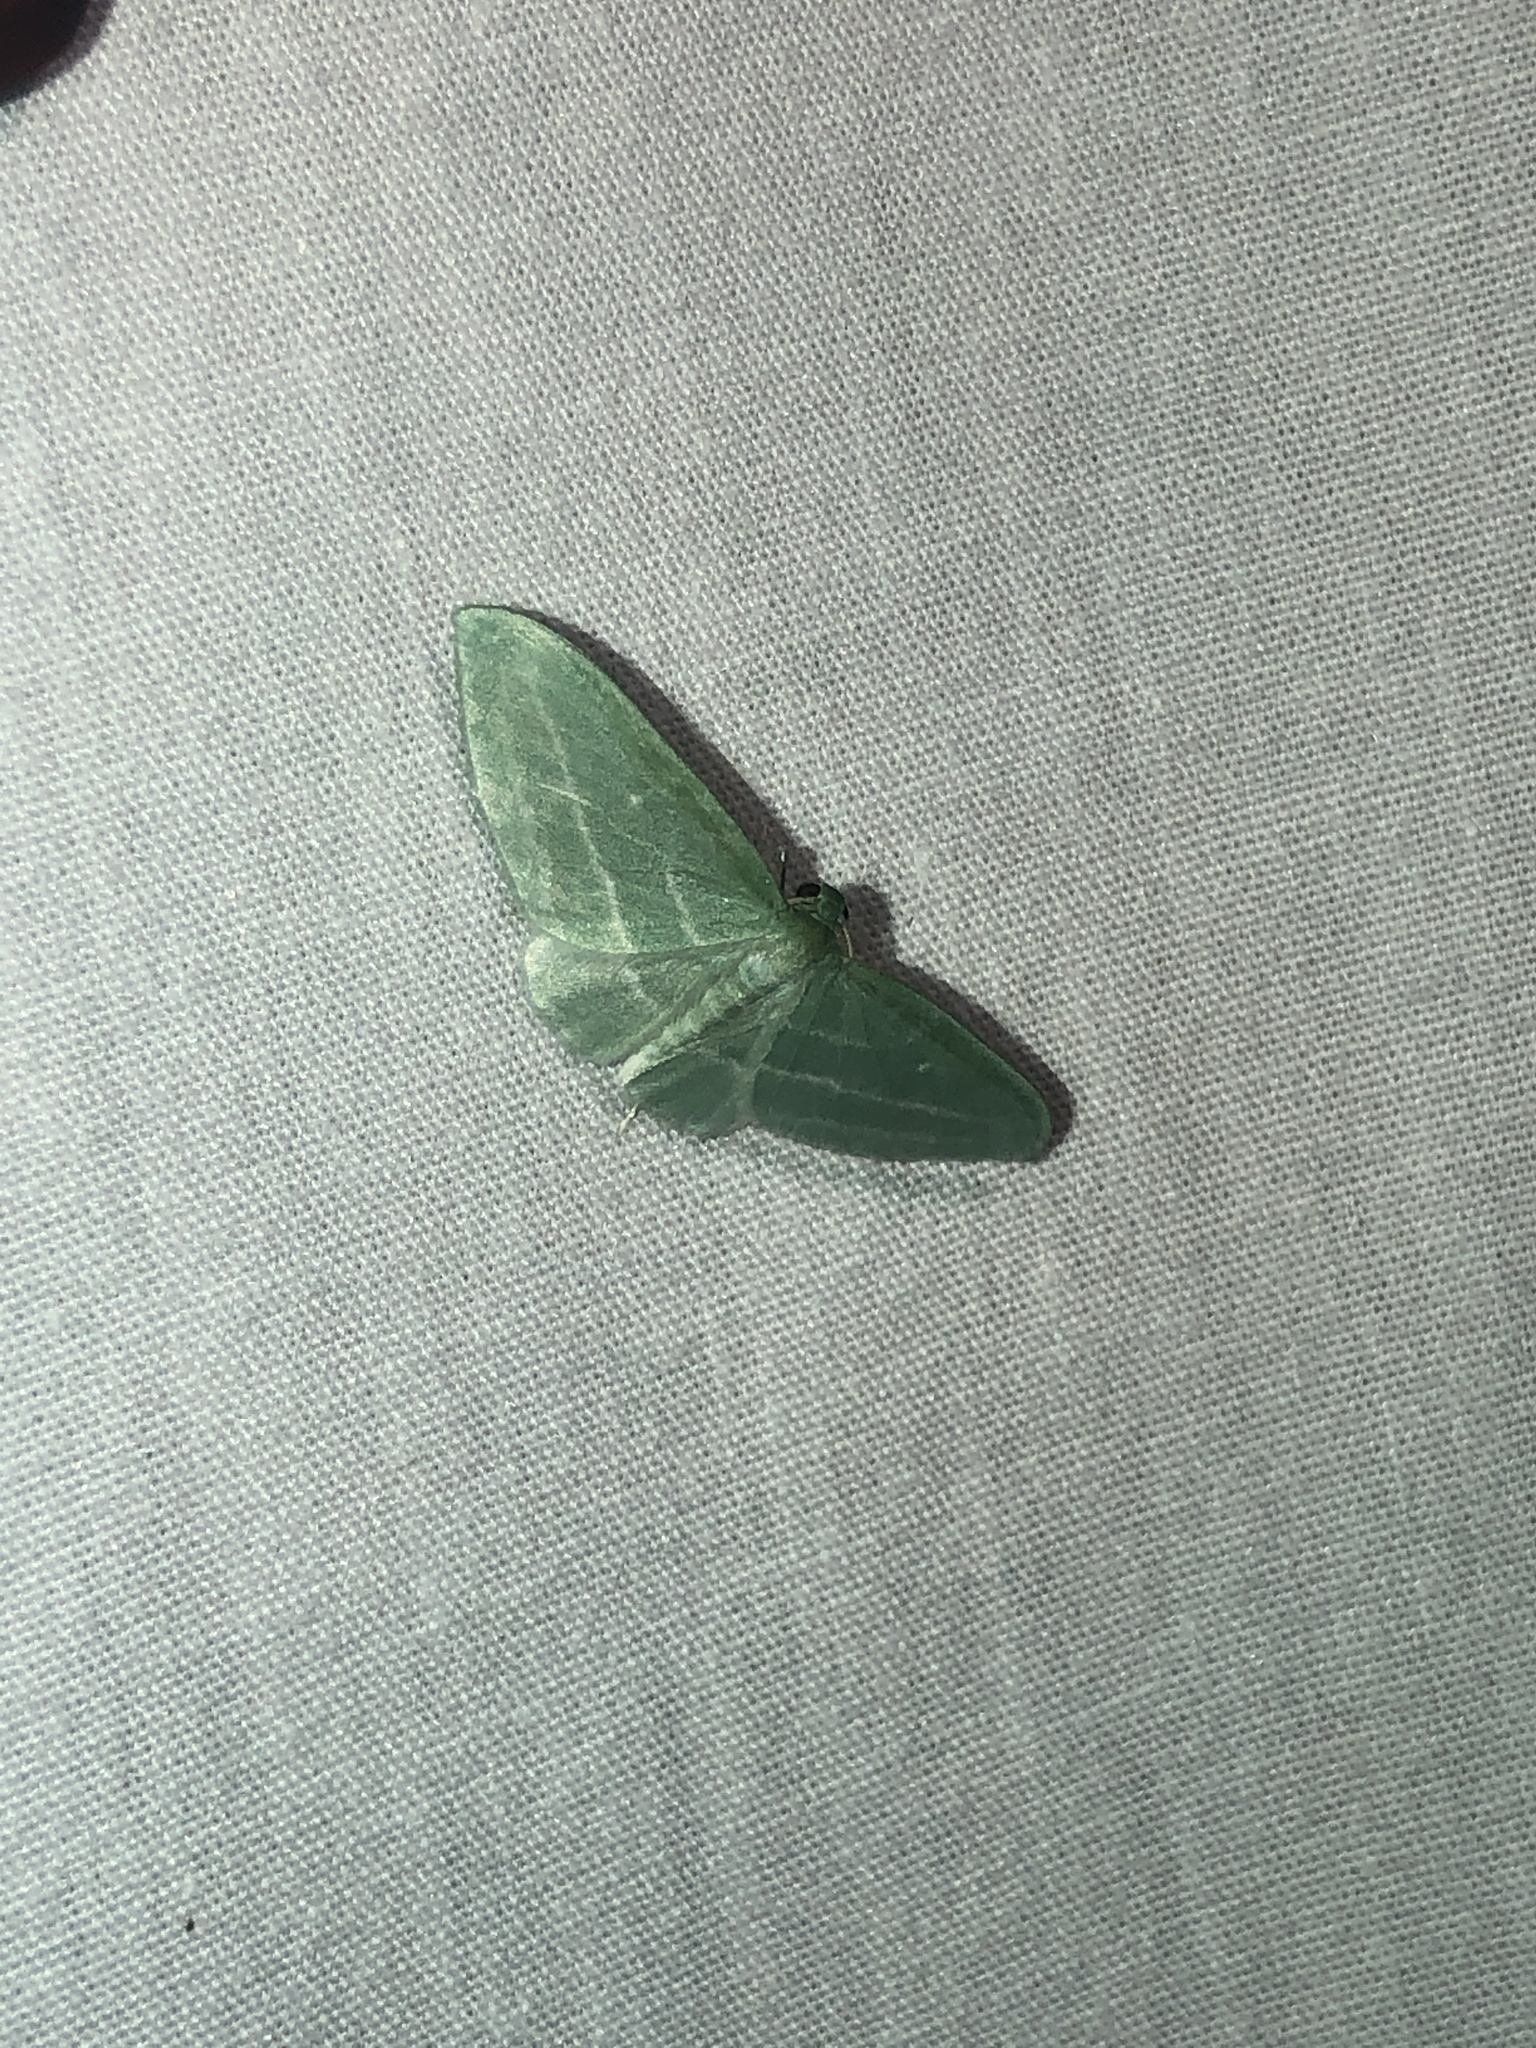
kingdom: Animalia
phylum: Arthropoda
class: Insecta
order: Lepidoptera
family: Geometridae
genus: Dyspteris
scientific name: Dyspteris abortivaria
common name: Bad-wing
